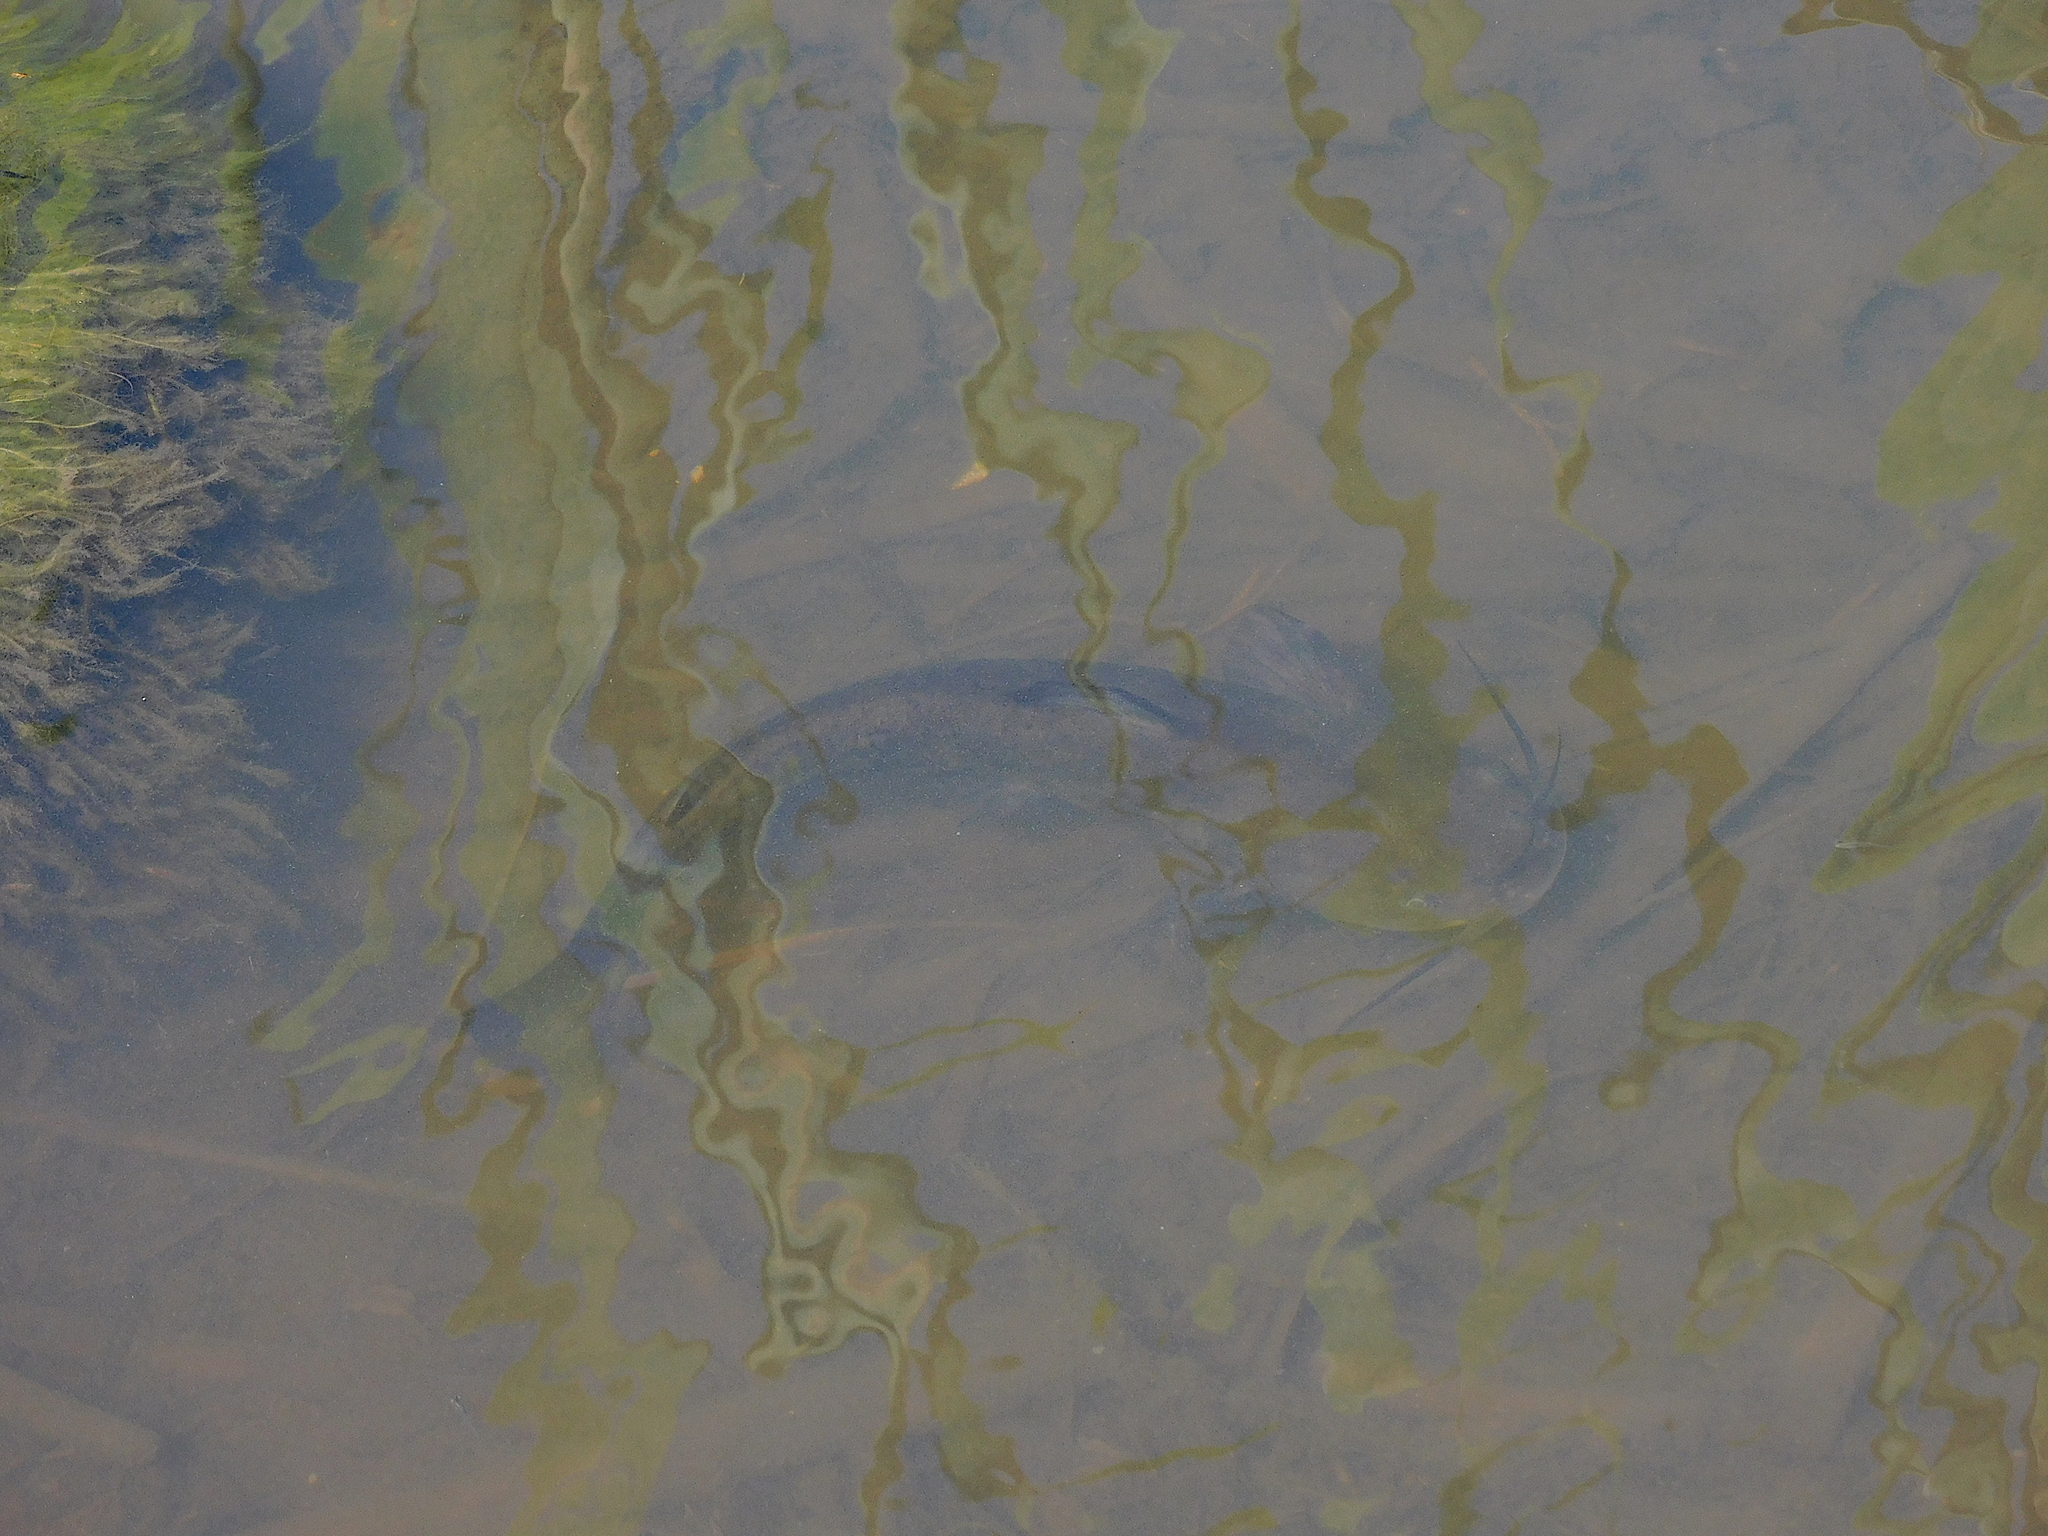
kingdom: Animalia
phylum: Chordata
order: Siluriformes
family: Ictaluridae
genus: Ameiurus
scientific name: Ameiurus nebulosus
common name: Brown bullhead
